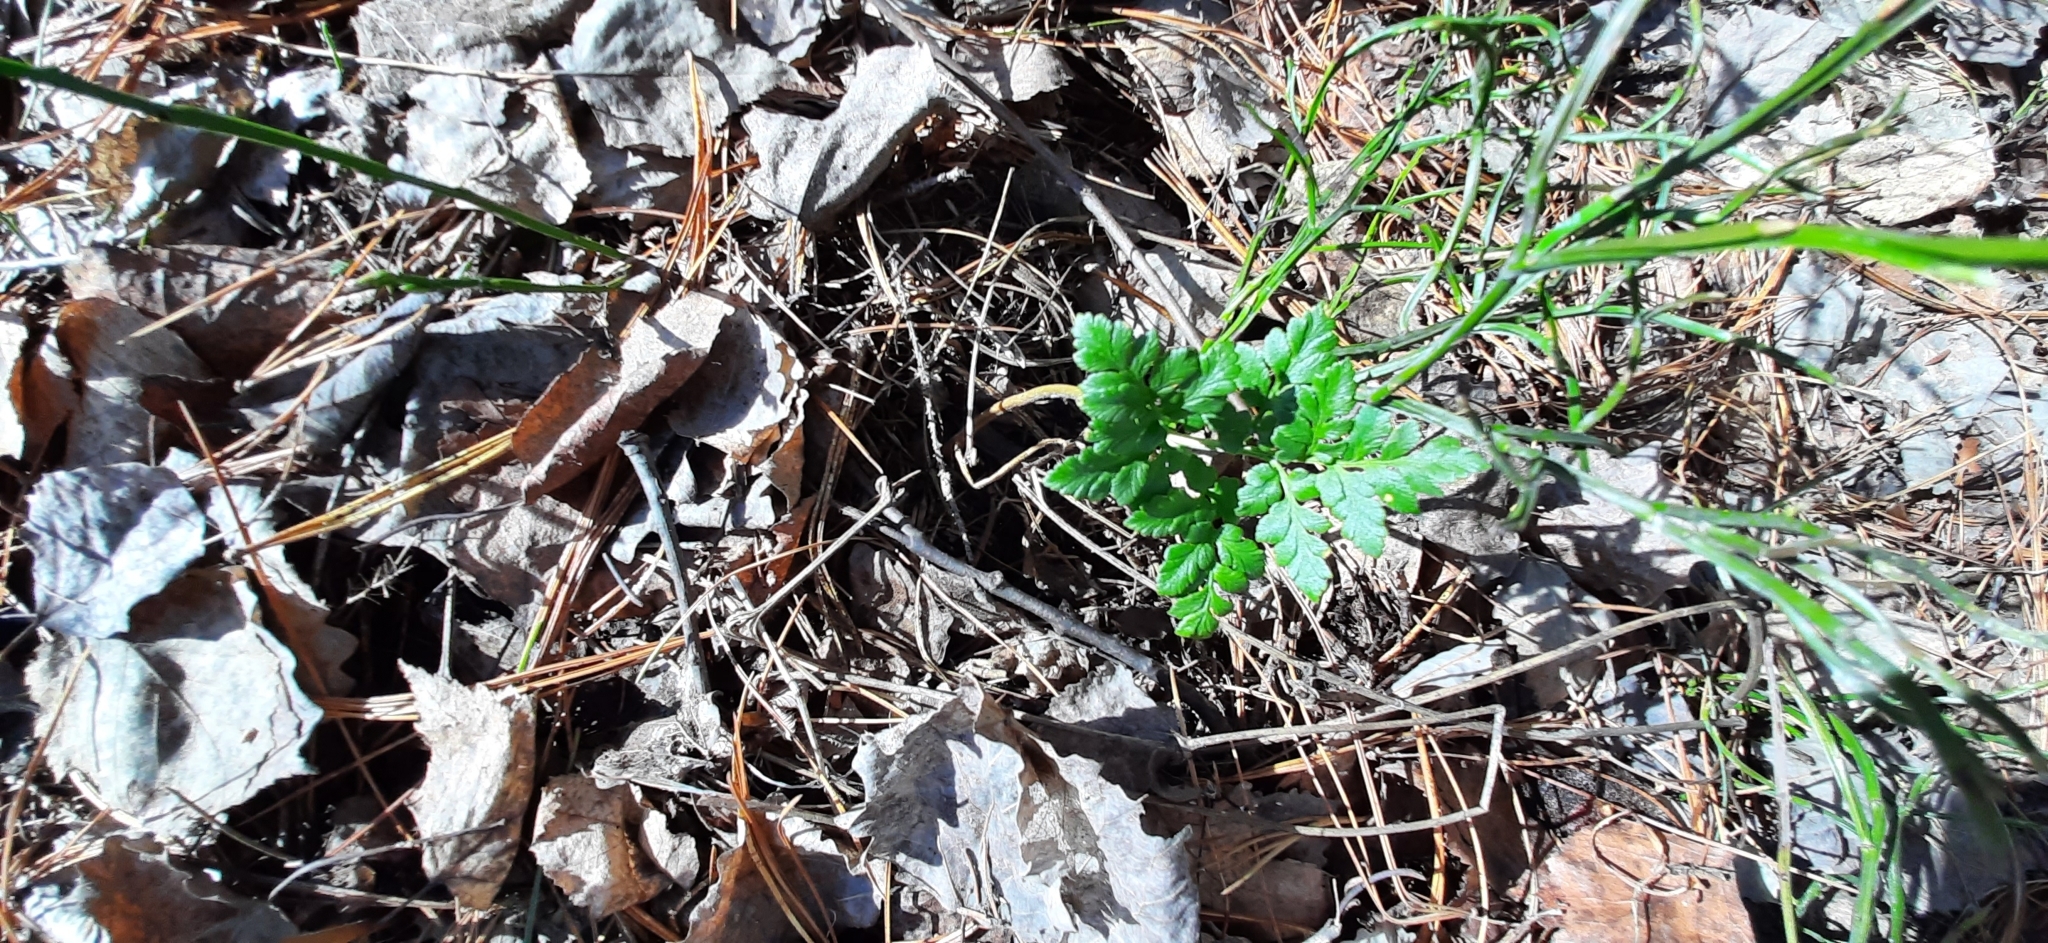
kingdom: Plantae
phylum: Tracheophyta
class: Polypodiopsida
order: Ophioglossales
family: Ophioglossaceae
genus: Sceptridium
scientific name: Sceptridium multifidum
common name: Leathery grape fern
